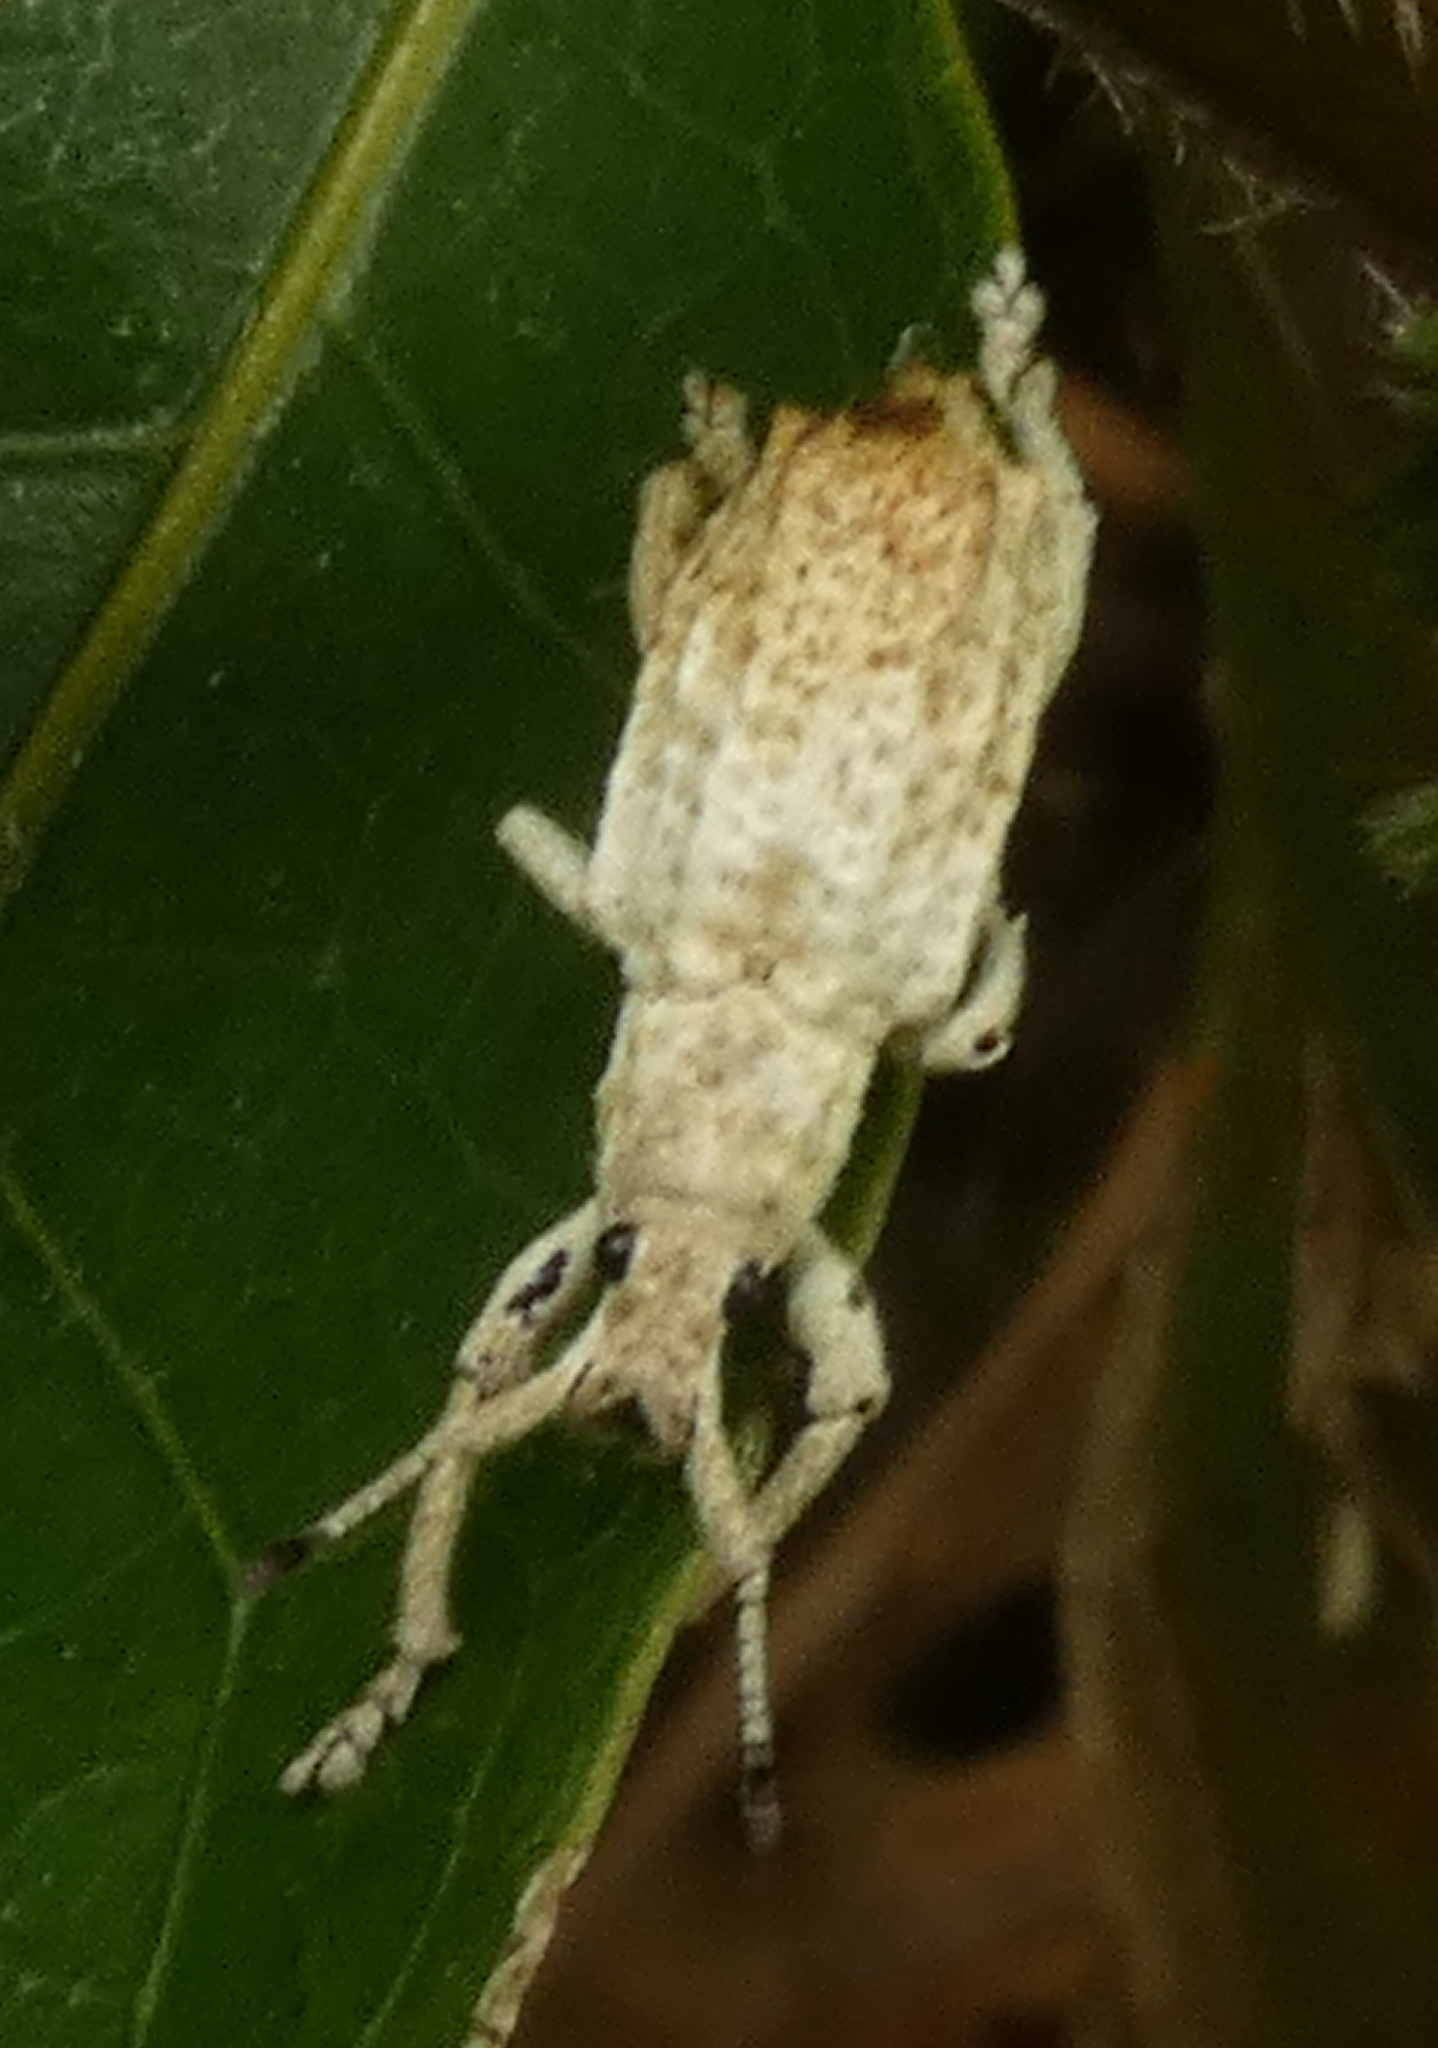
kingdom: Animalia
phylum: Arthropoda
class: Insecta
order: Coleoptera
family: Curculionidae
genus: Compsus
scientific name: Compsus niveus
